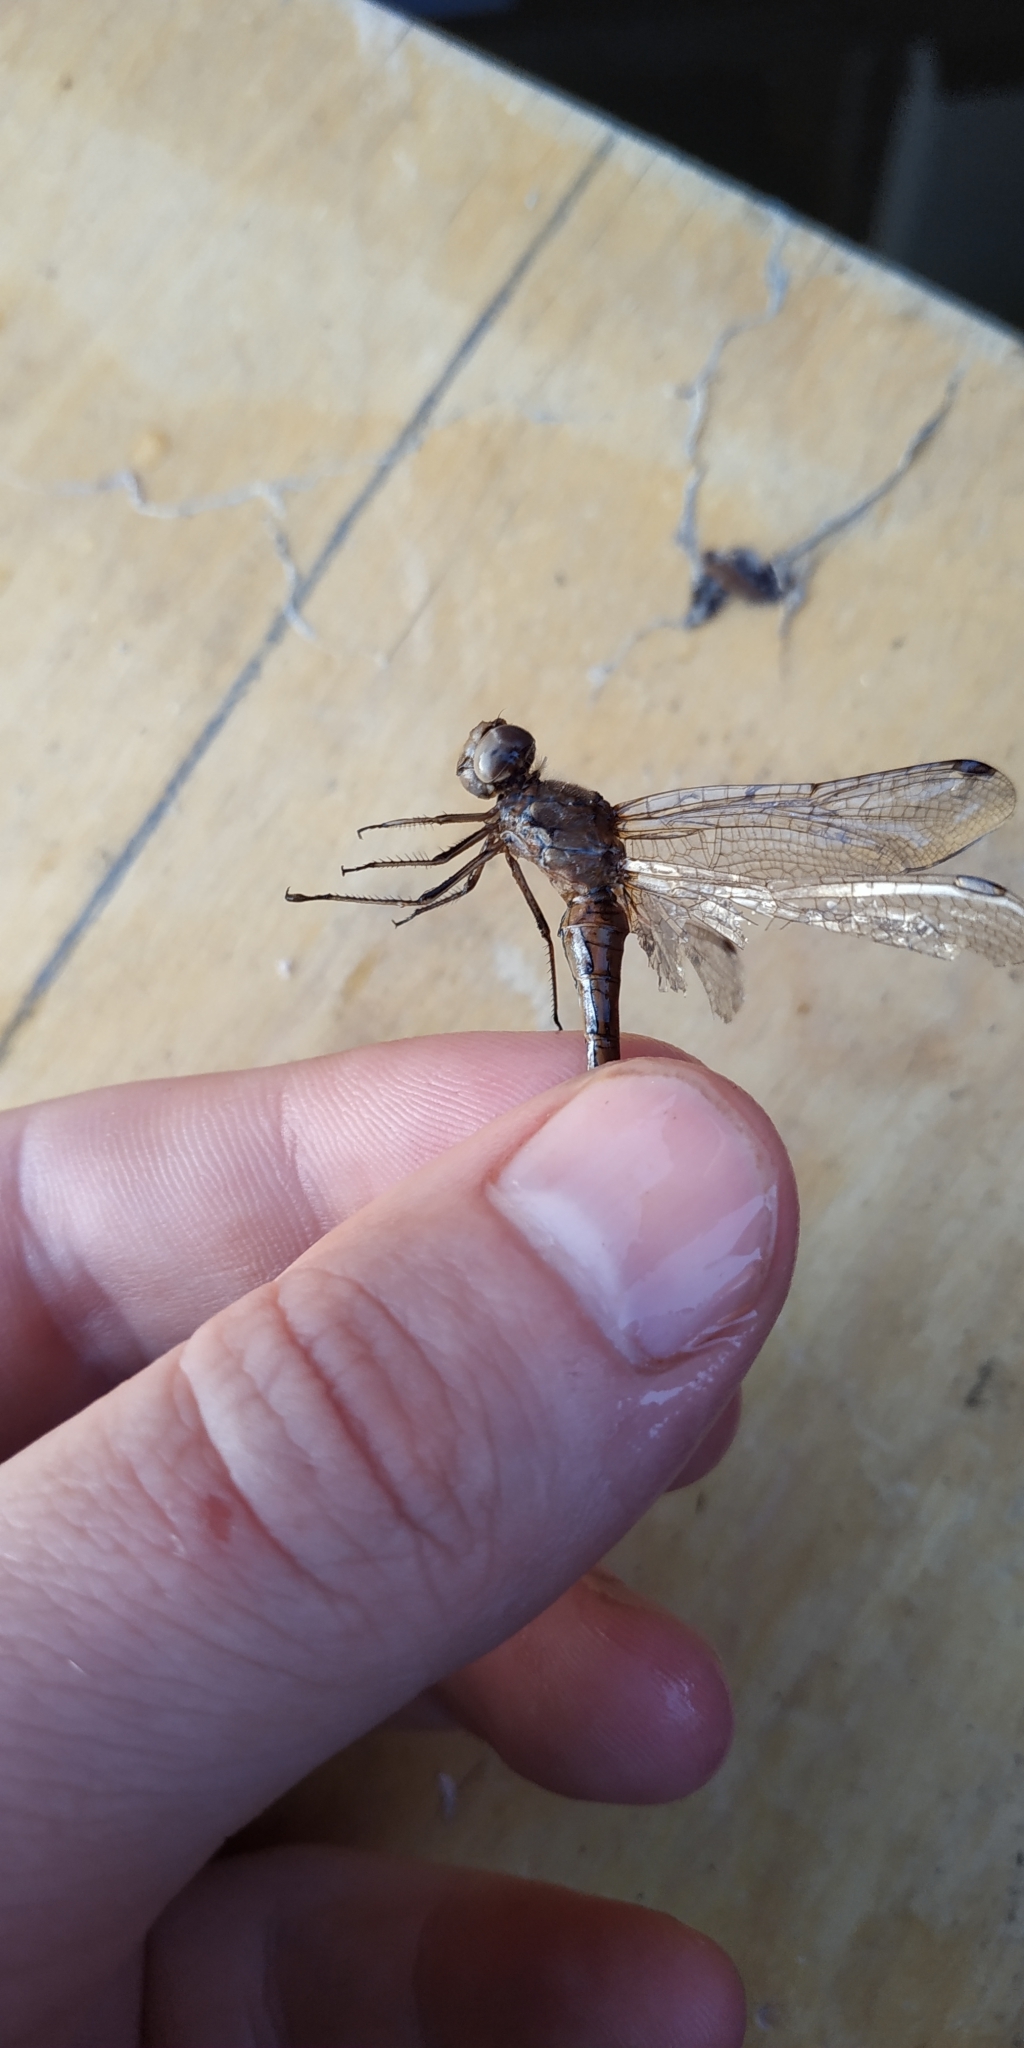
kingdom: Animalia
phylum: Arthropoda
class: Insecta
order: Odonata
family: Libellulidae
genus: Sympetrum
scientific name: Sympetrum vulgatum
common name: Vagrant darter
